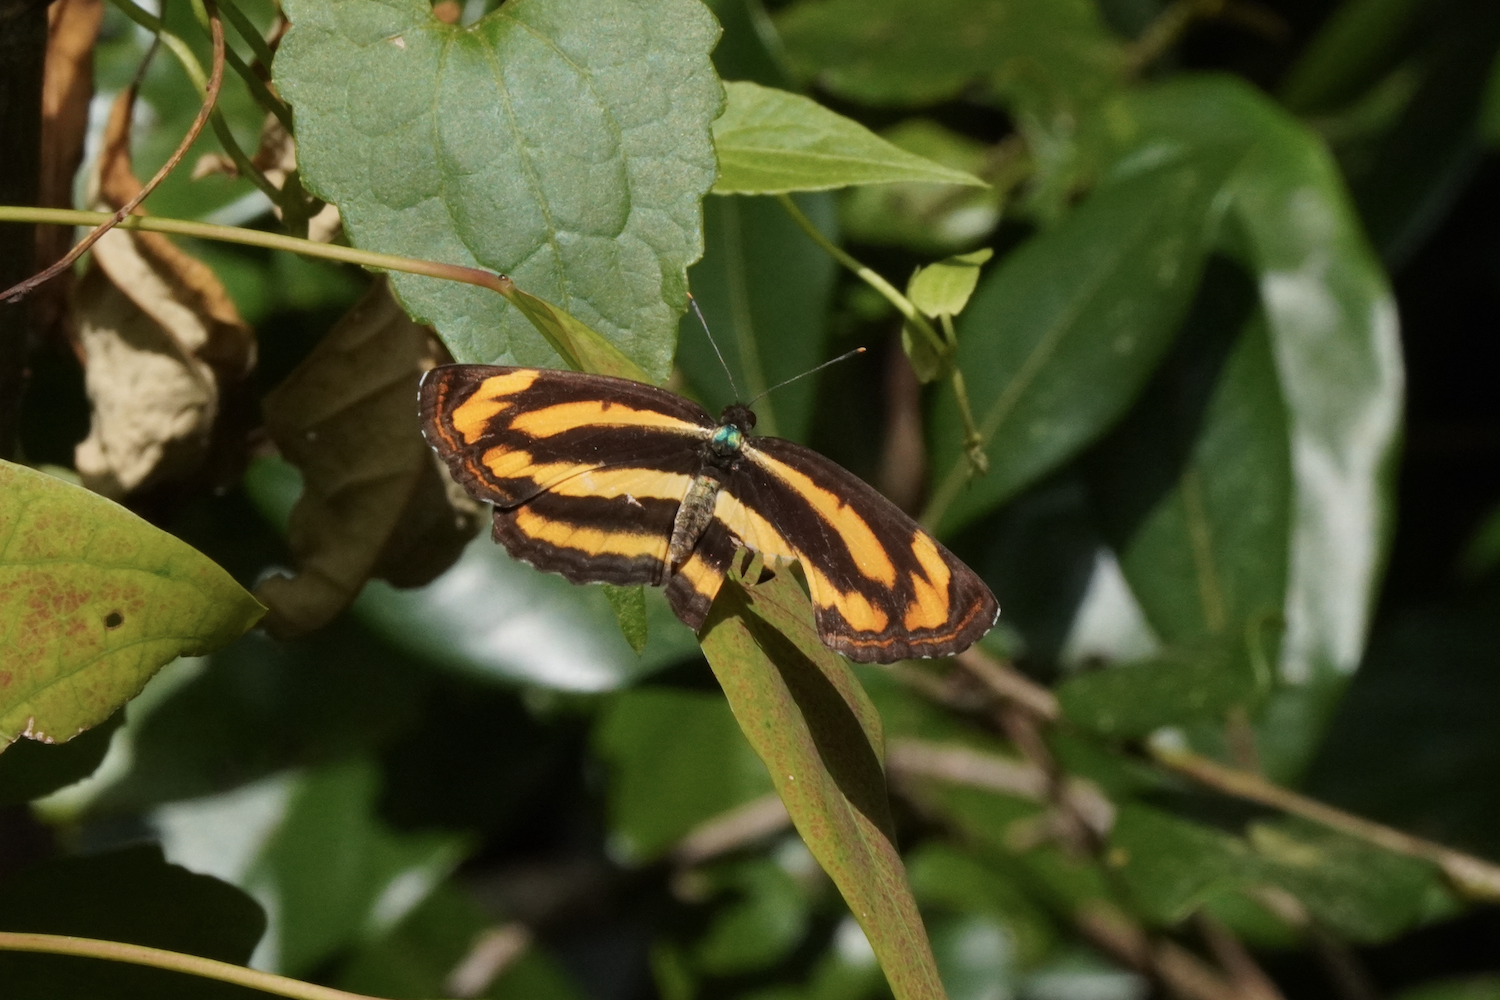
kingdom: Animalia
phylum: Arthropoda
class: Insecta
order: Lepidoptera
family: Nymphalidae
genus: Pantoporia
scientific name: Pantoporia hordonia
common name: Common lascar
